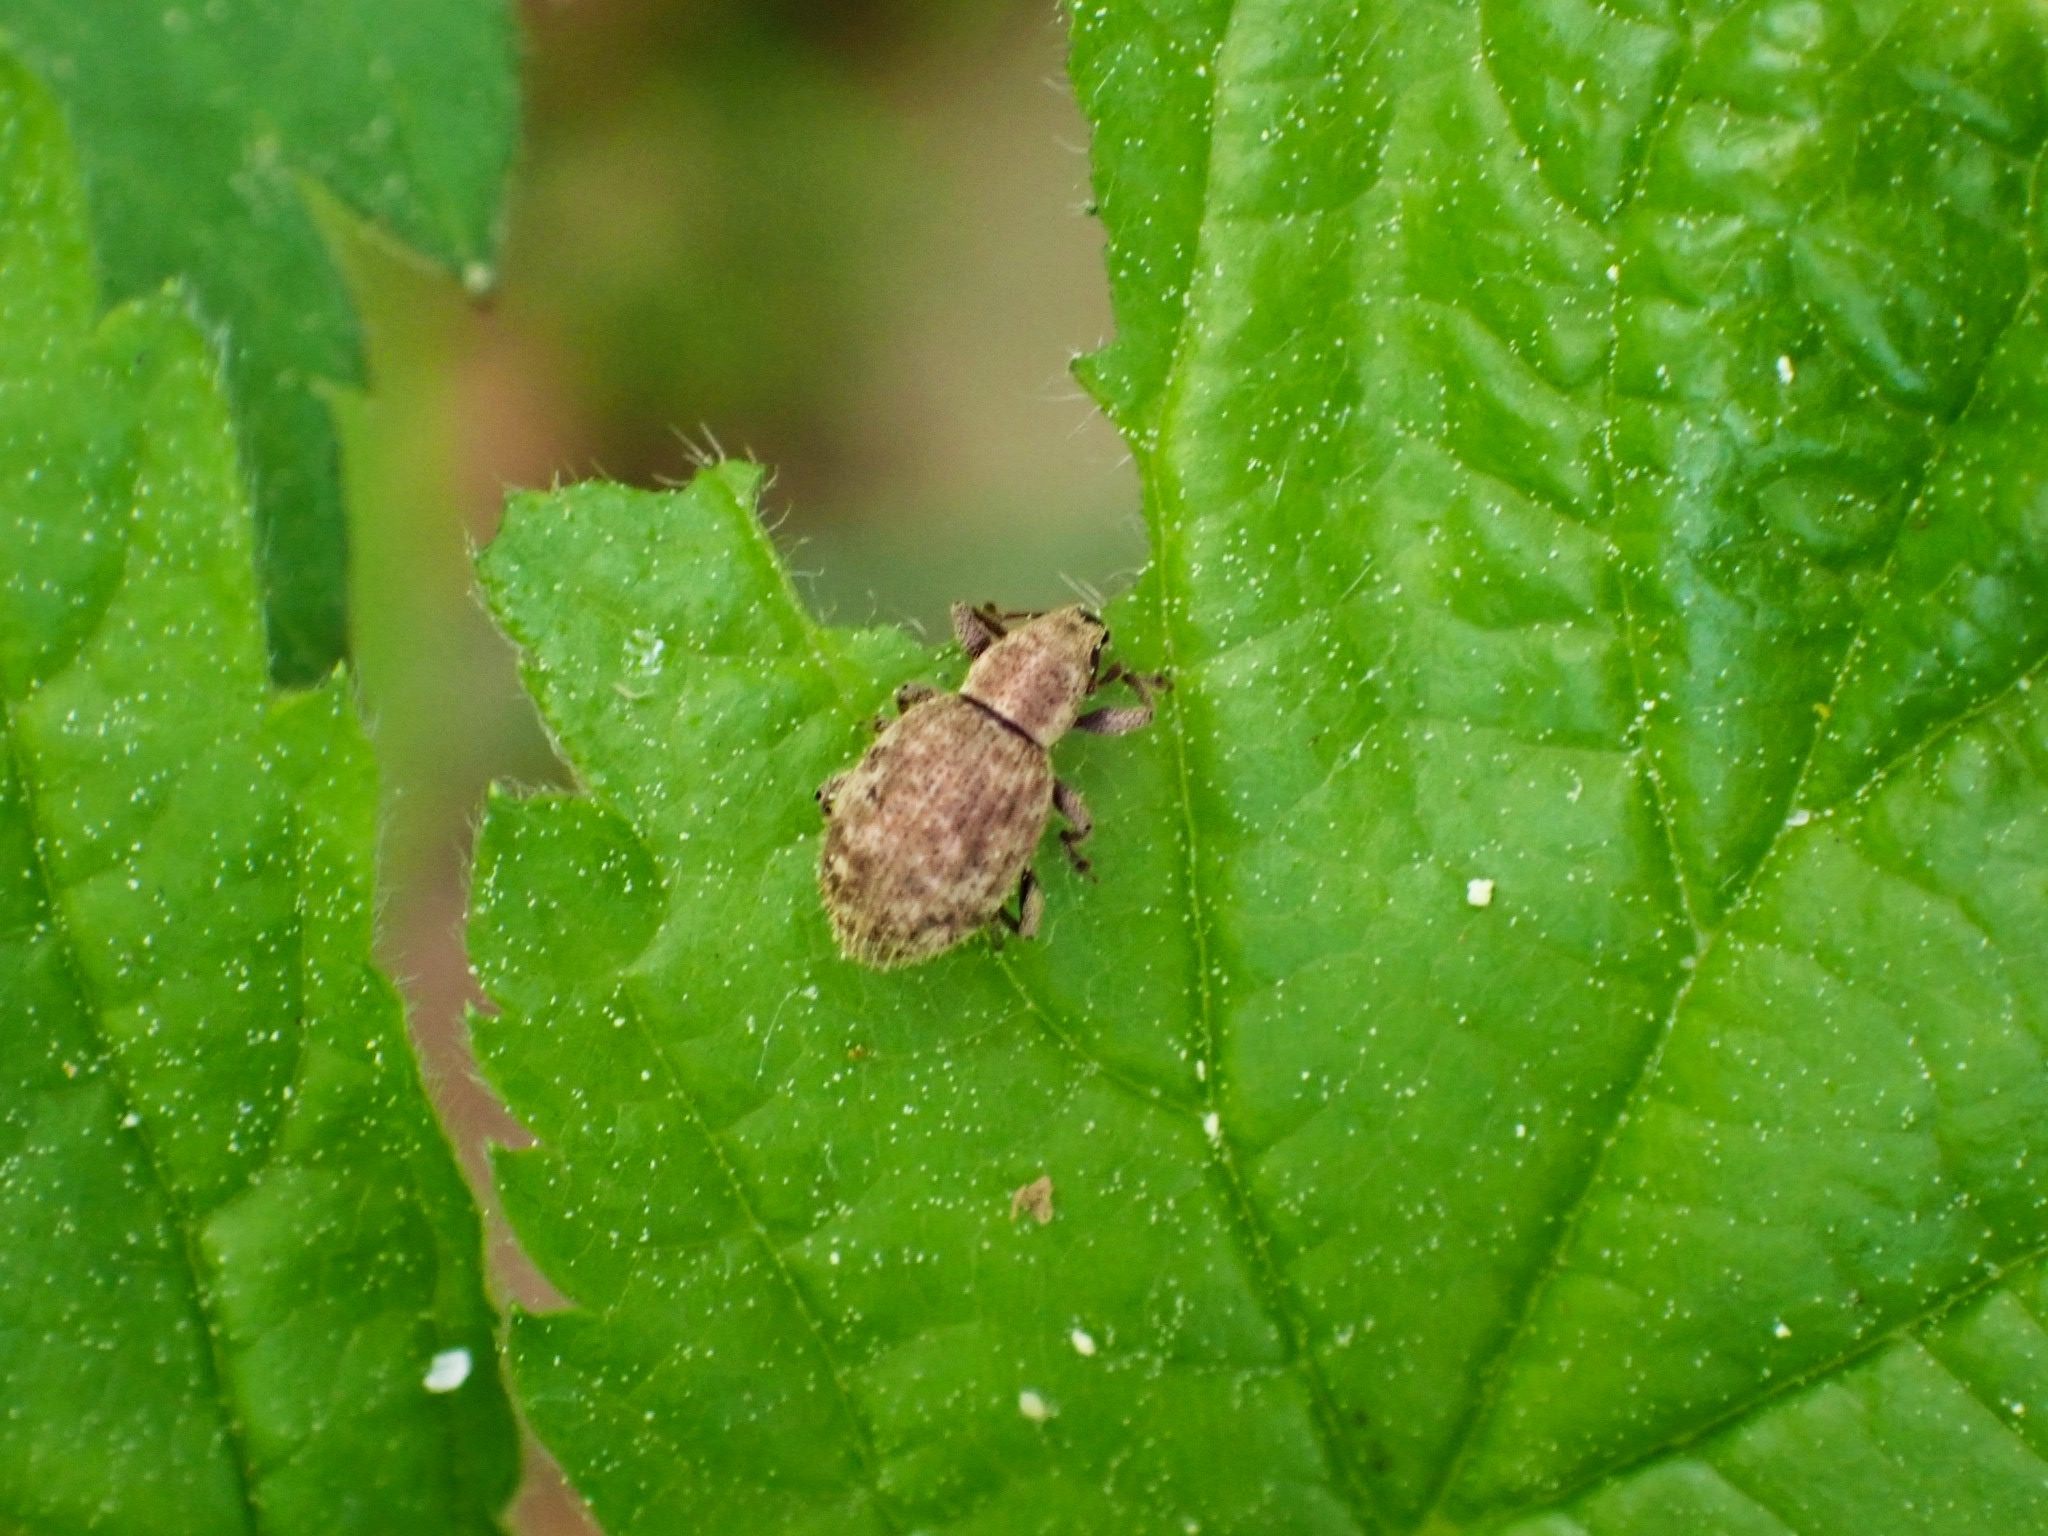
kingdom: Animalia
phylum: Arthropoda
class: Insecta
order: Coleoptera
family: Curculionidae
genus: Sciaphilus
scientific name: Sciaphilus asperatus
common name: Weevil
